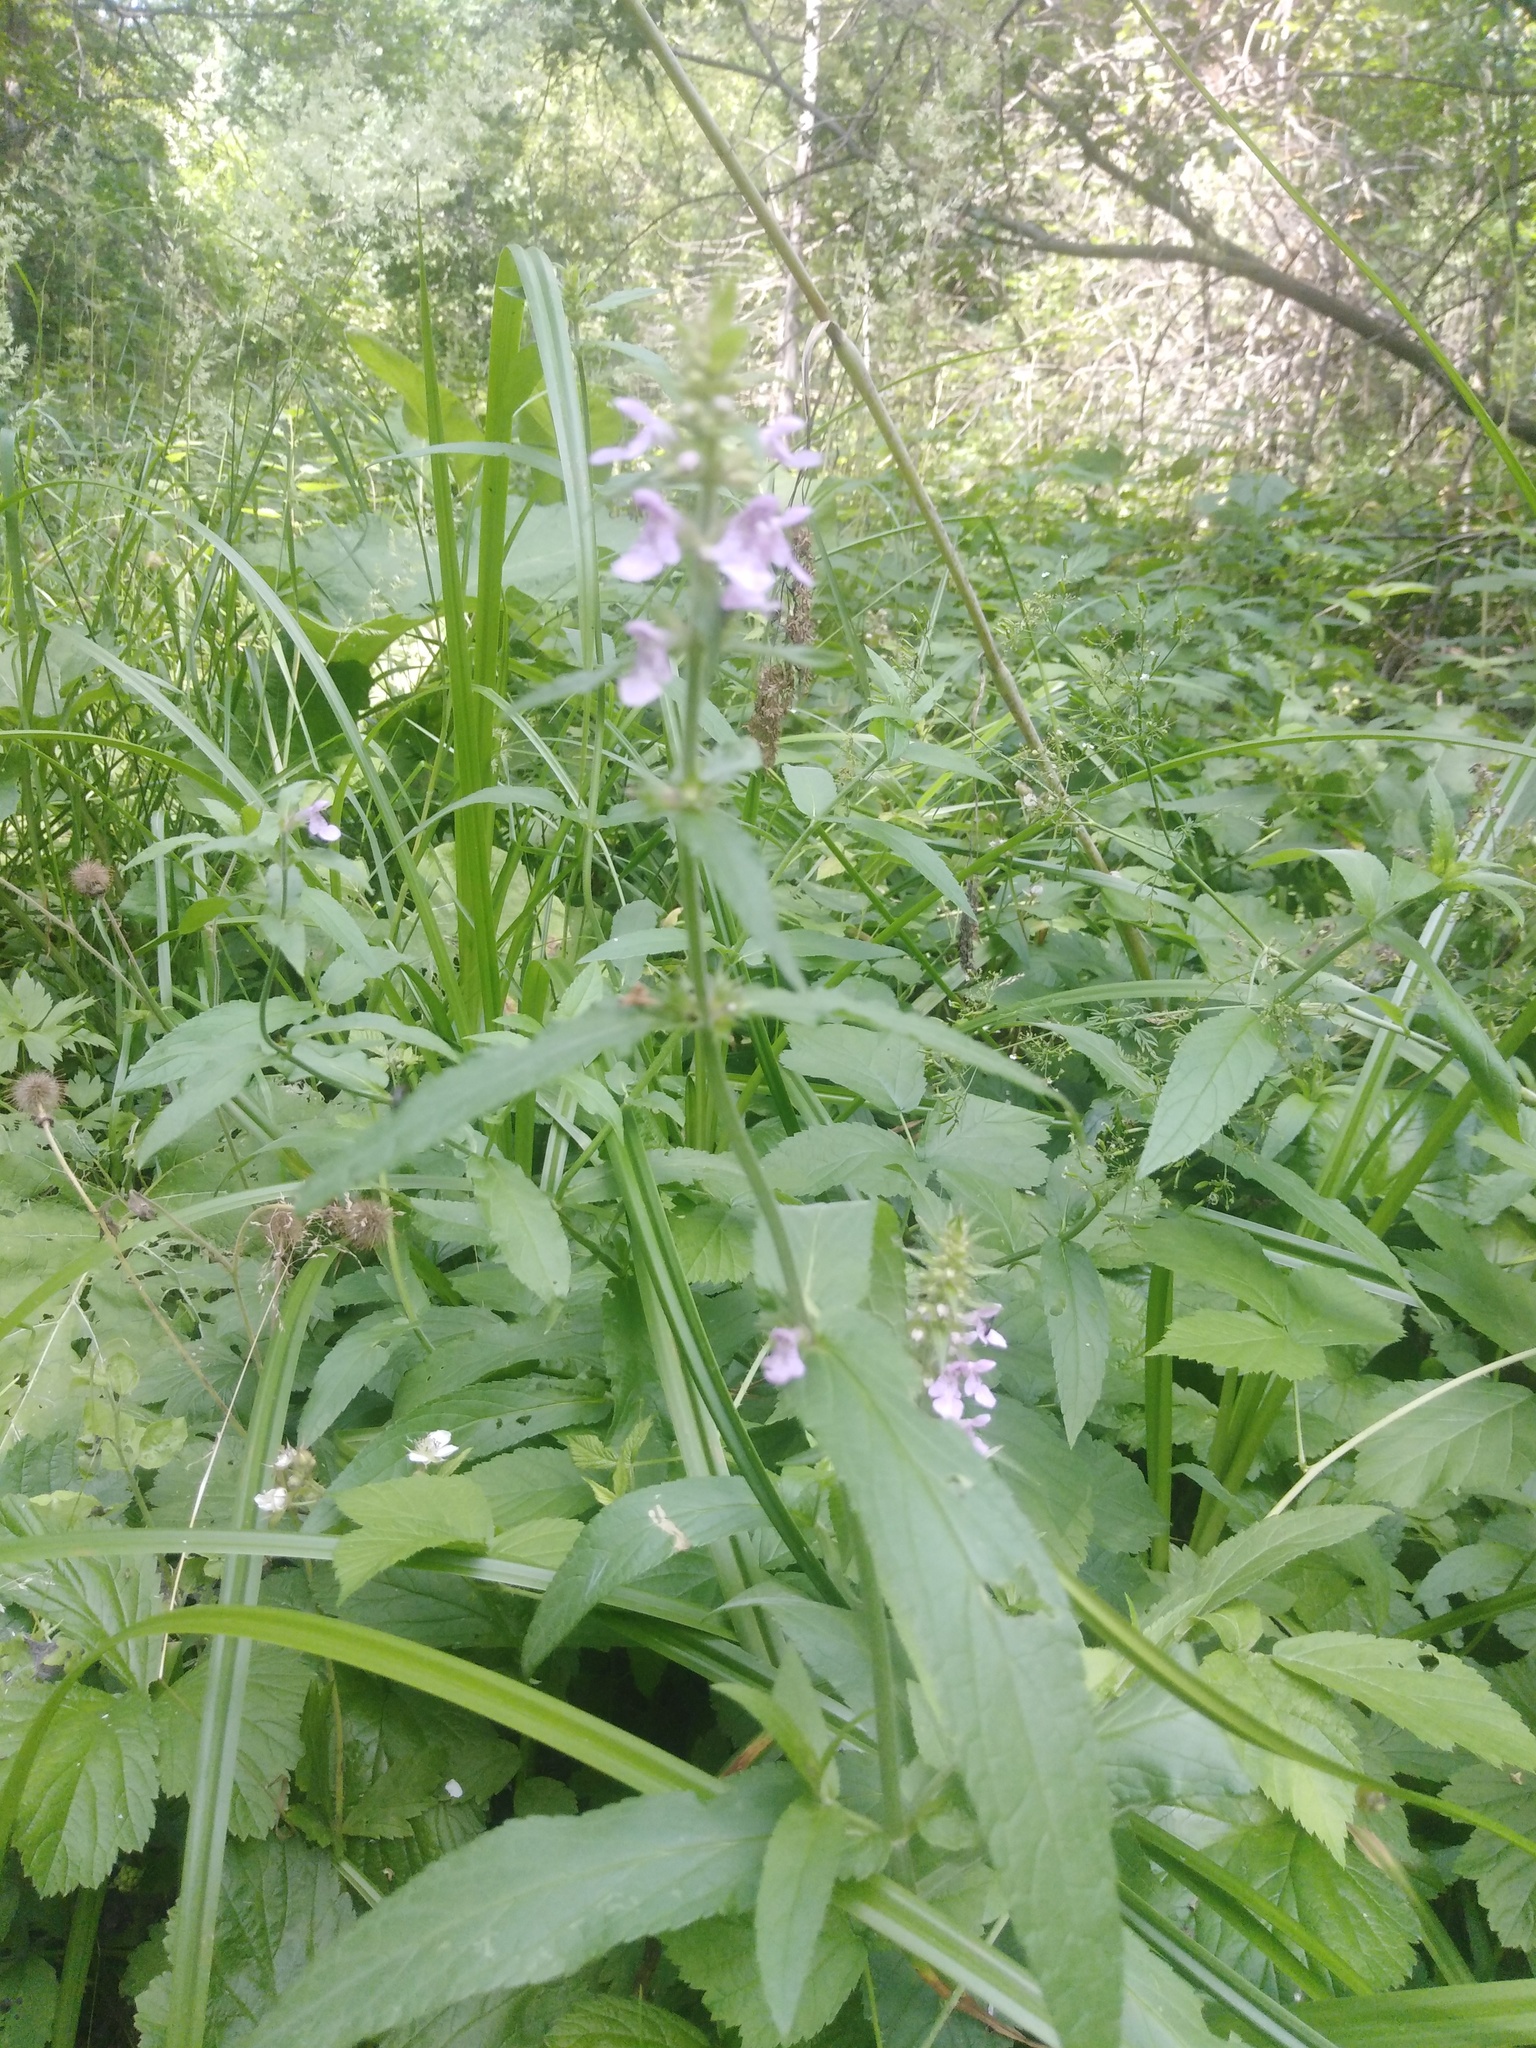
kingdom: Plantae
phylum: Tracheophyta
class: Magnoliopsida
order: Lamiales
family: Lamiaceae
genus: Stachys
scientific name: Stachys palustris
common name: Marsh woundwort
